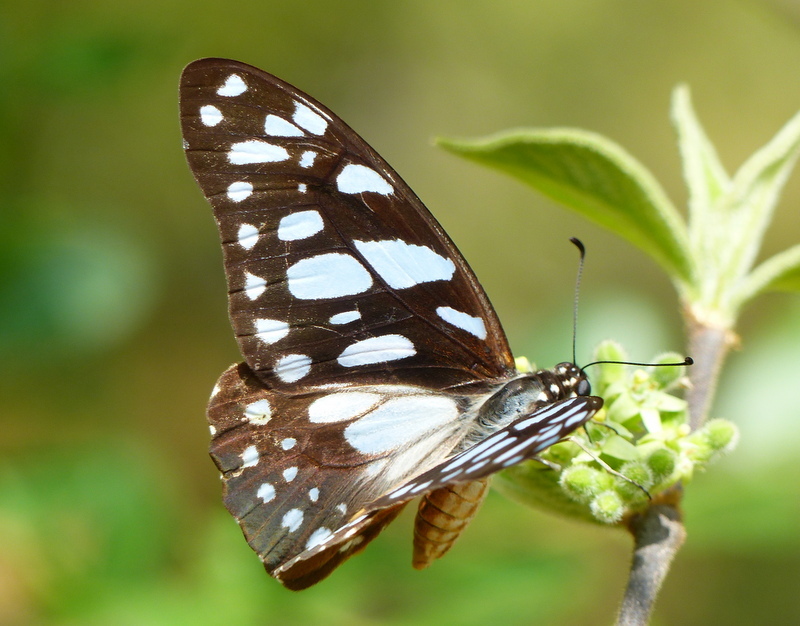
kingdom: Animalia
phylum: Arthropoda
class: Insecta
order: Lepidoptera
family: Papilionidae
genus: Graphium
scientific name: Graphium leonidas
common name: Common graphium
